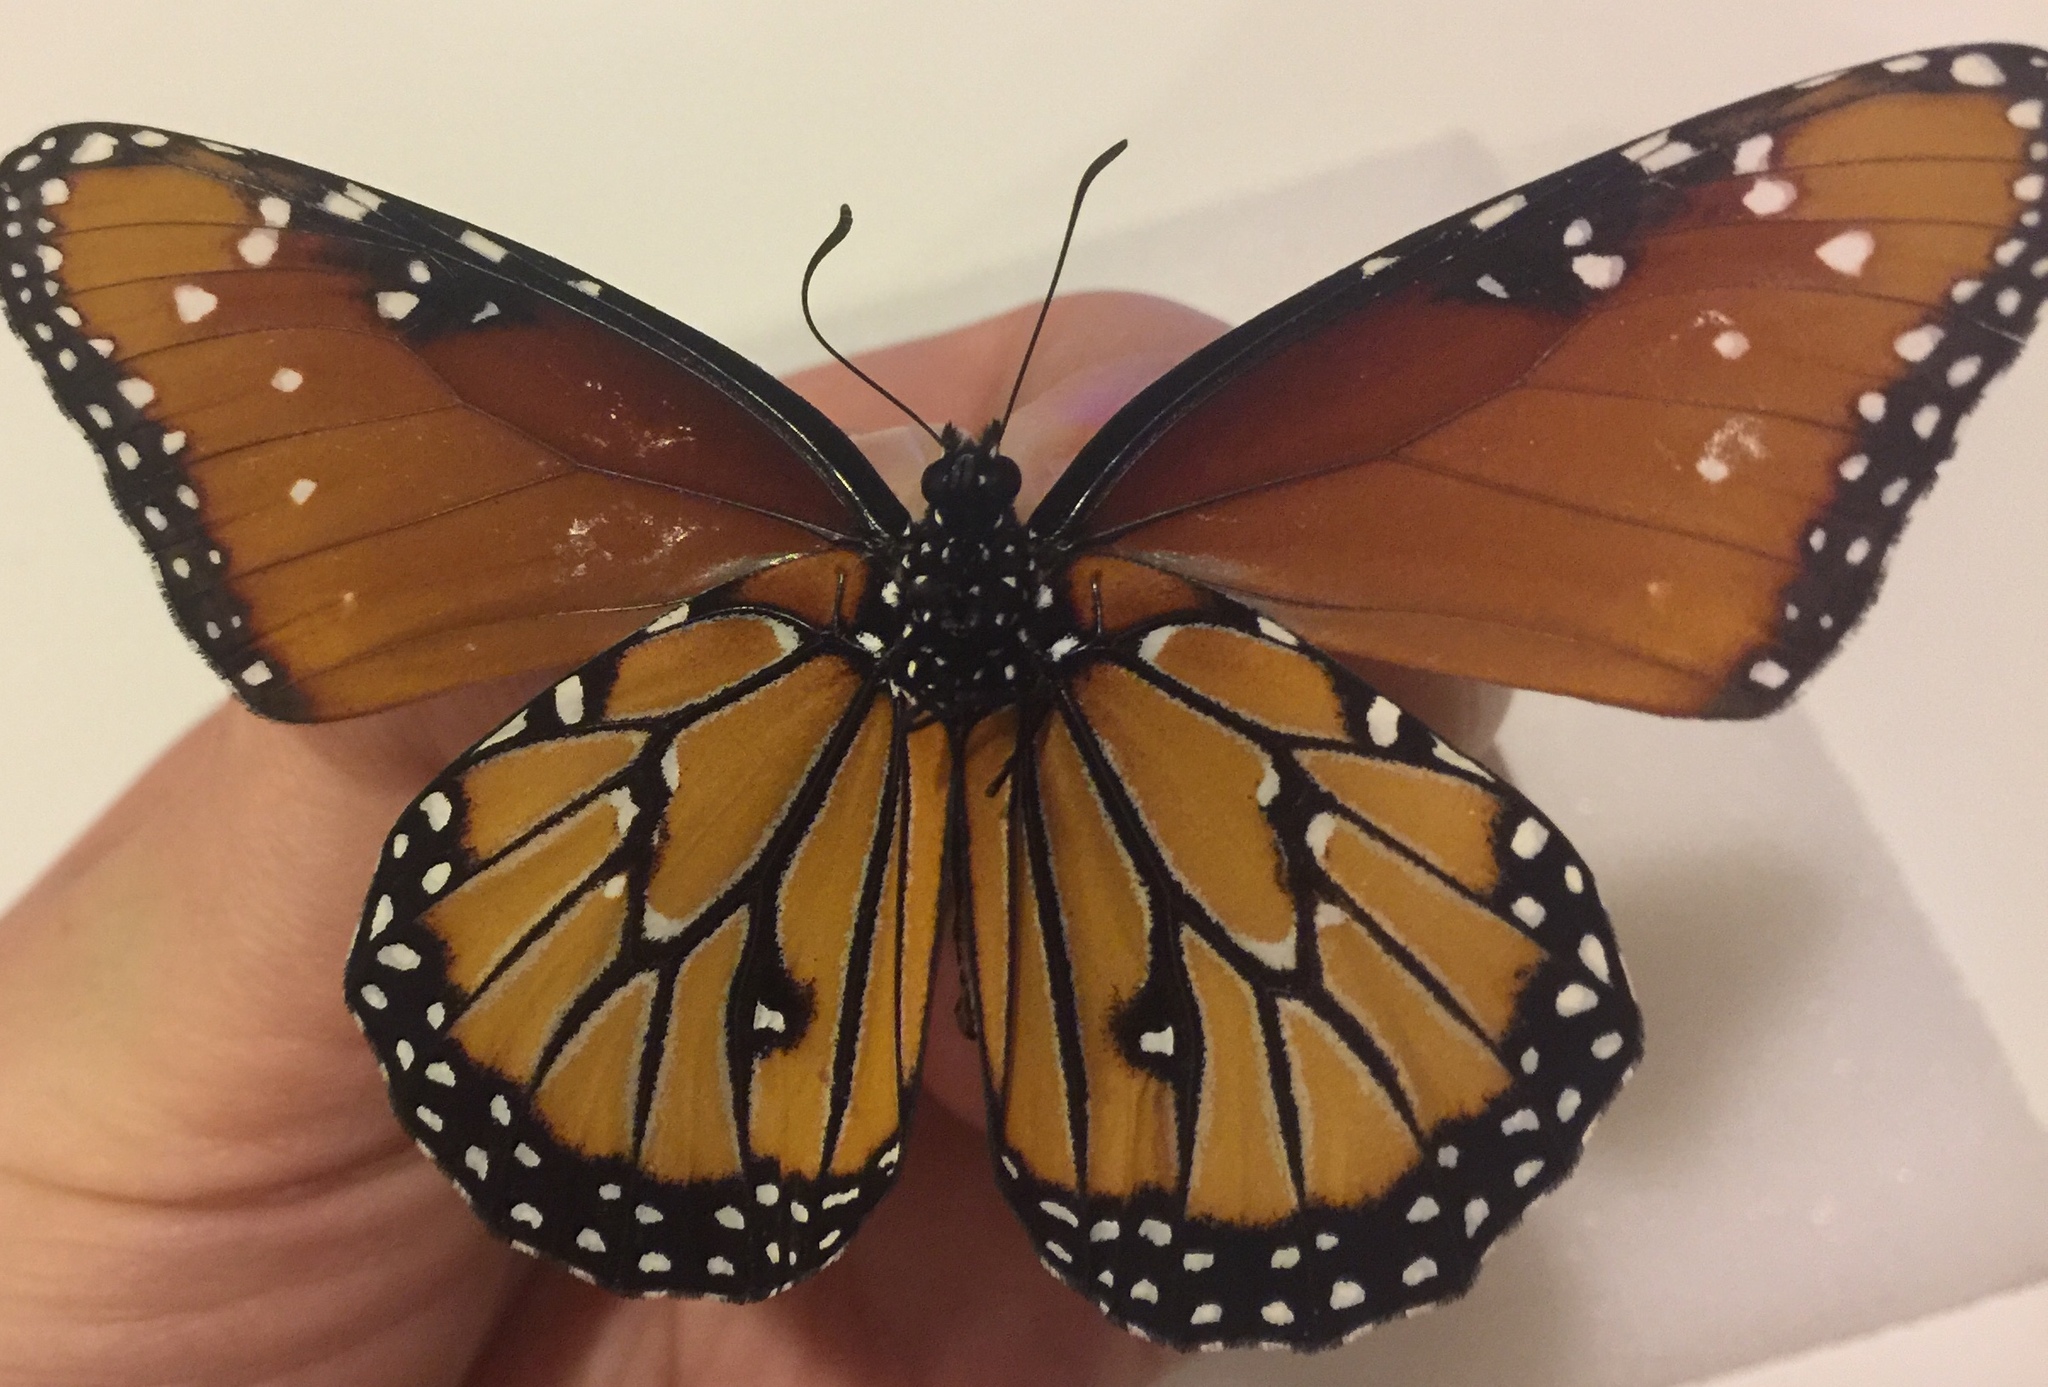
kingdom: Animalia
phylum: Arthropoda
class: Insecta
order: Lepidoptera
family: Nymphalidae
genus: Danaus
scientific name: Danaus gilippus
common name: Queen
